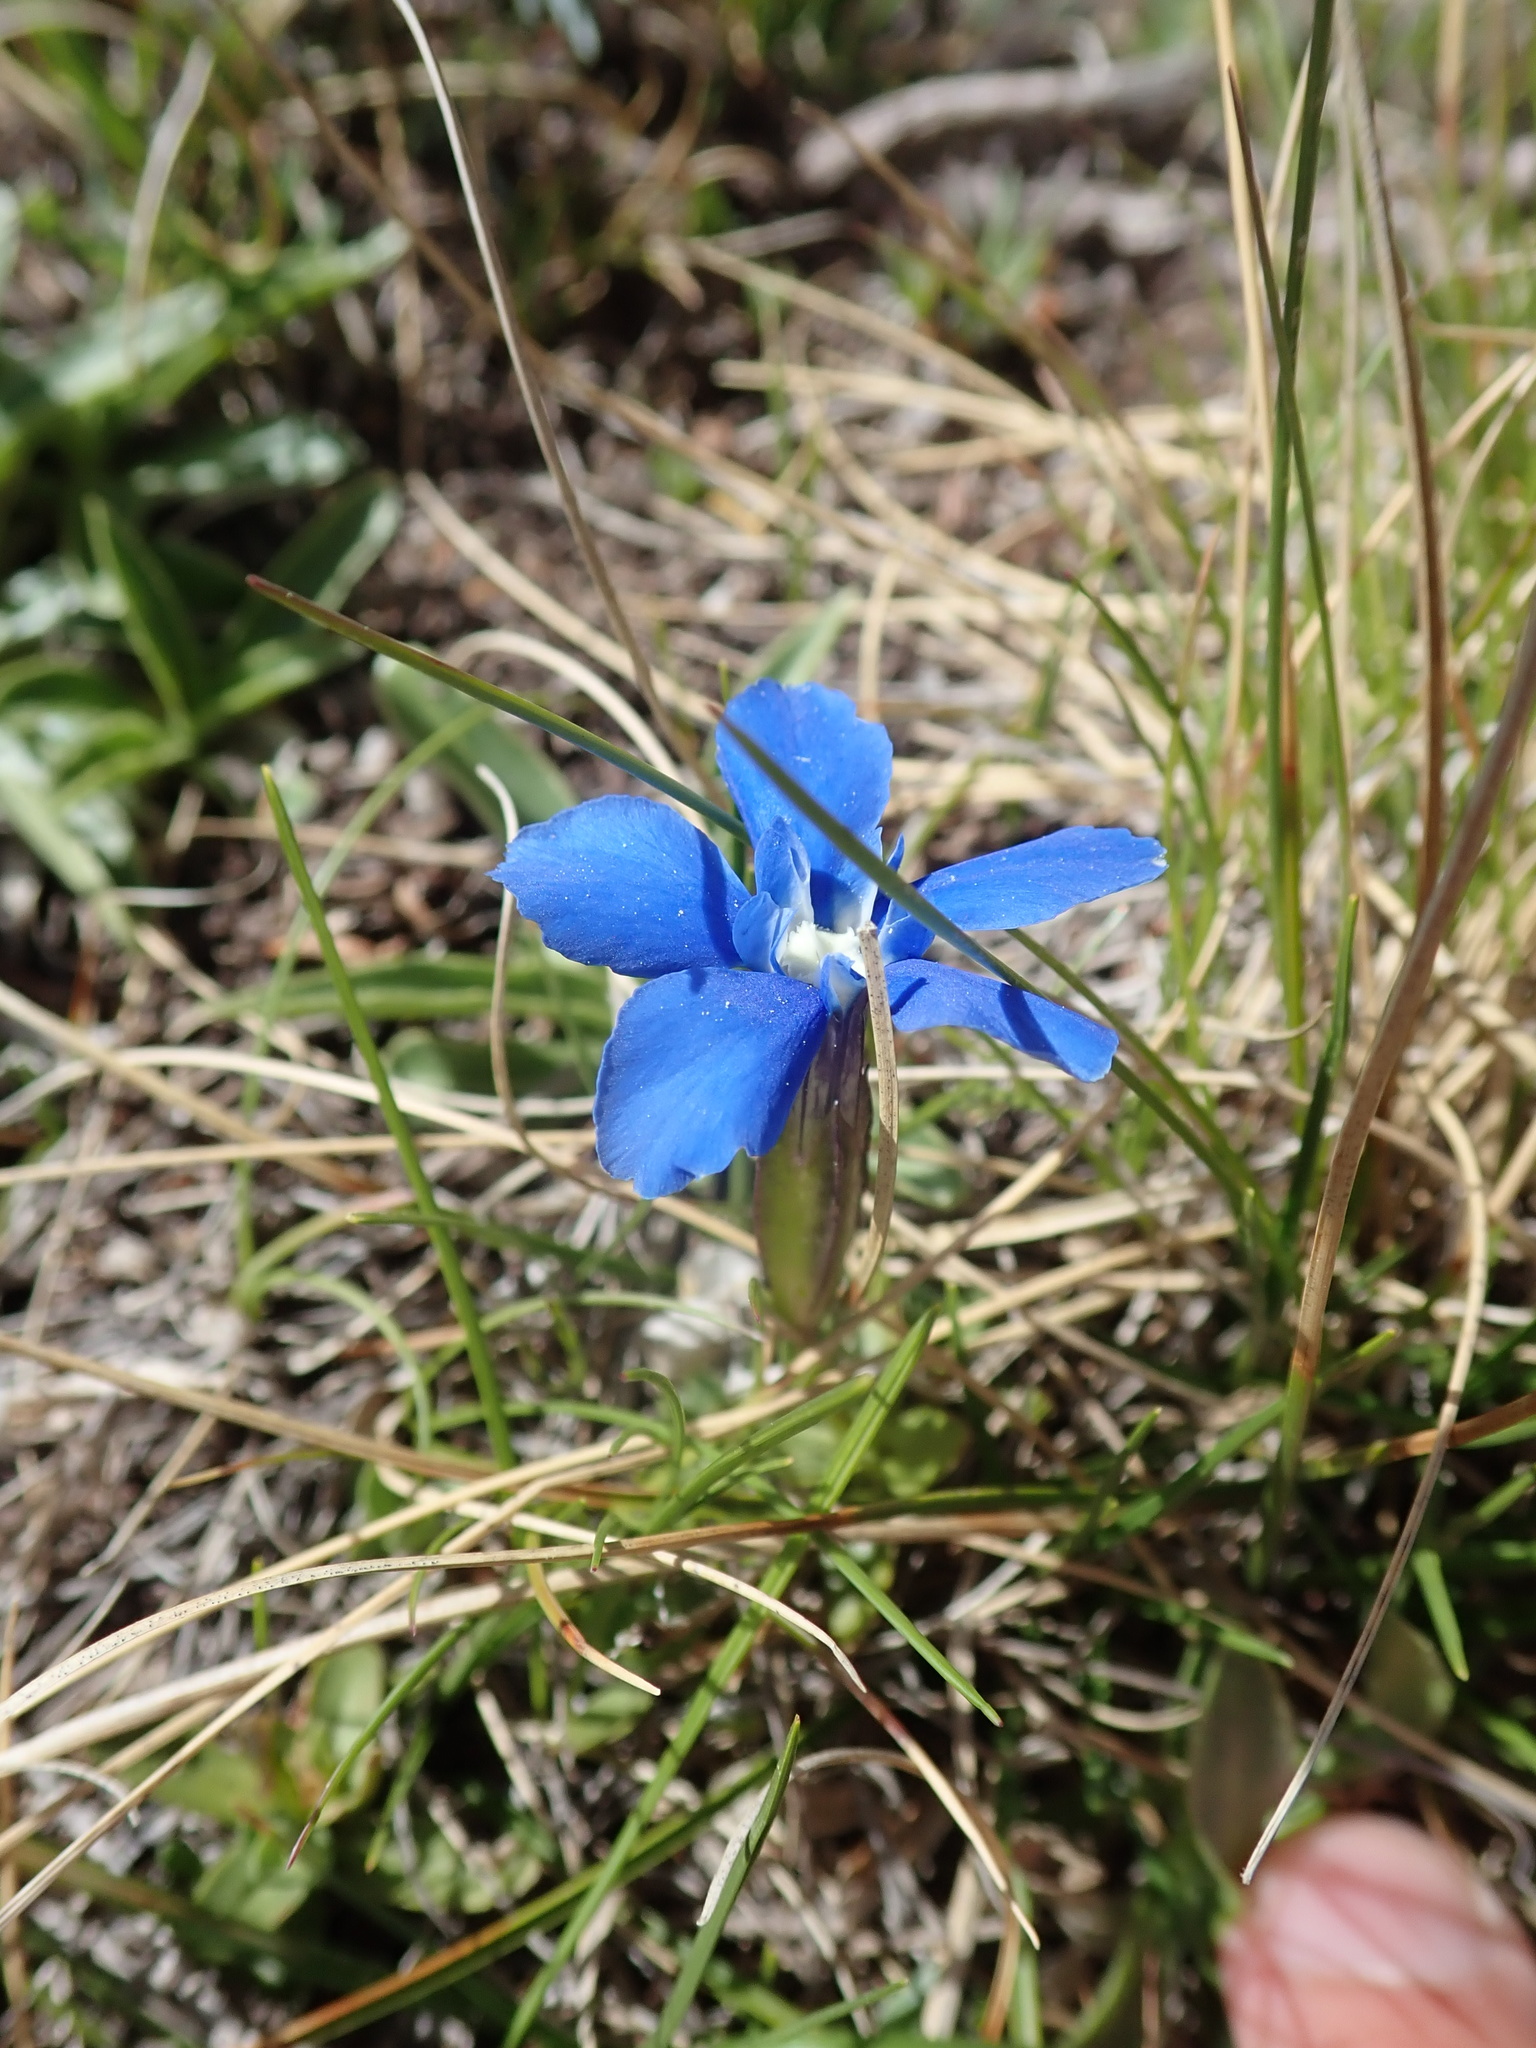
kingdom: Plantae
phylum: Tracheophyta
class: Magnoliopsida
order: Gentianales
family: Gentianaceae
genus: Gentiana
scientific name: Gentiana verna
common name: Spring gentian
